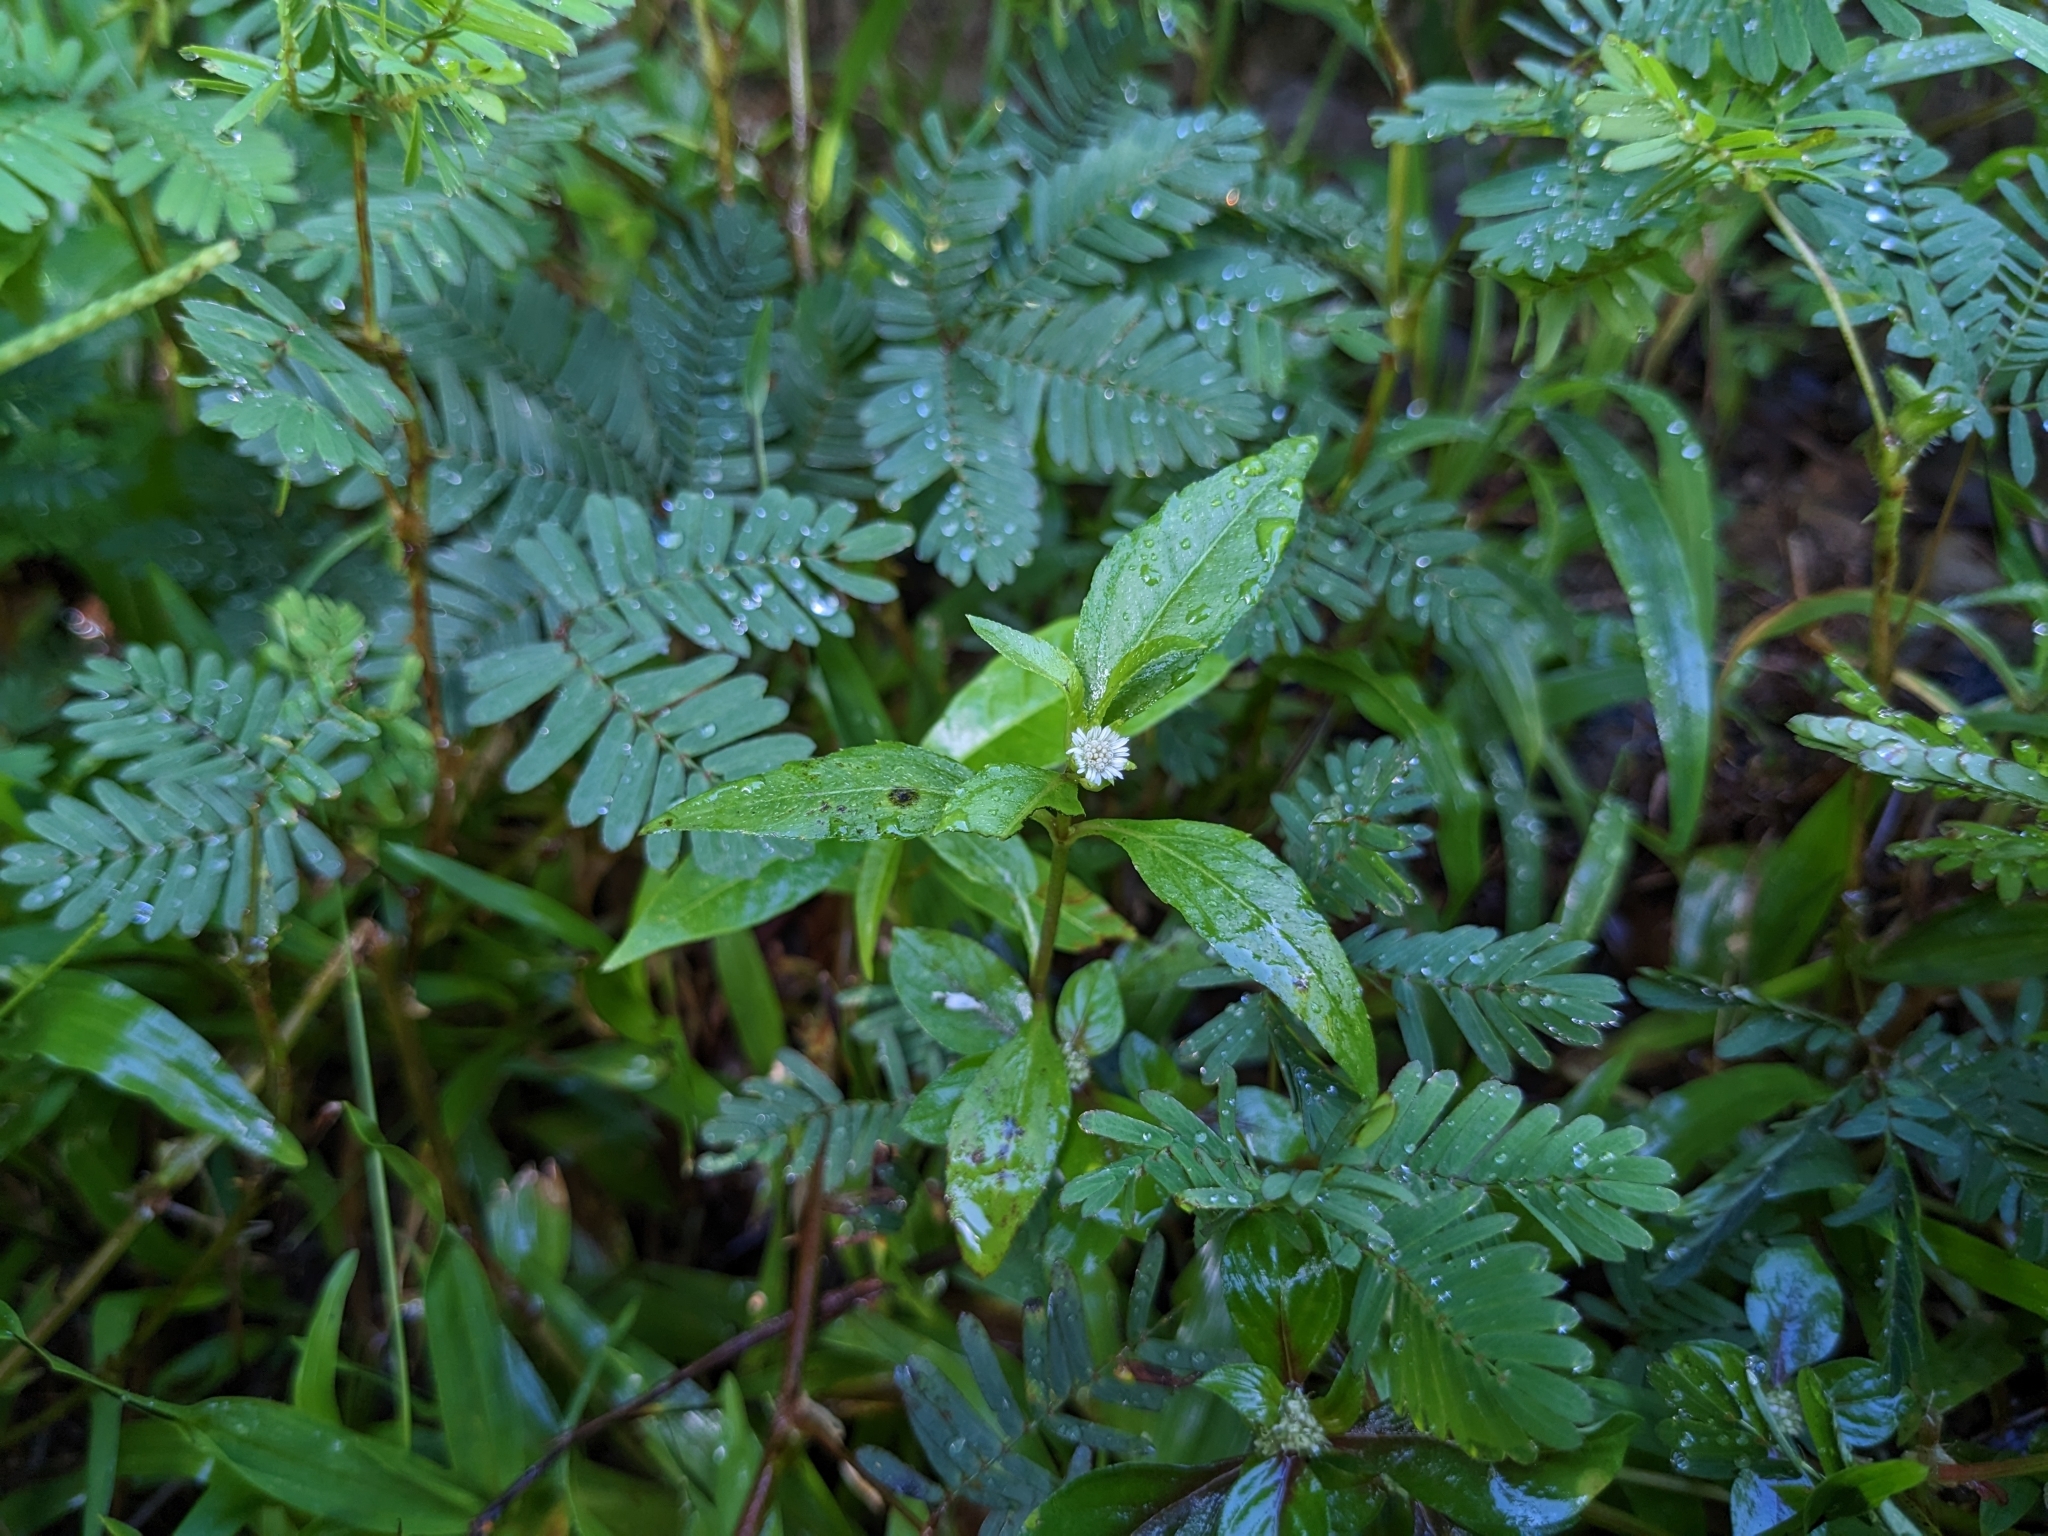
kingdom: Plantae
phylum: Tracheophyta
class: Magnoliopsida
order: Asterales
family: Asteraceae
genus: Eclipta
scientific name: Eclipta prostrata
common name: False daisy
